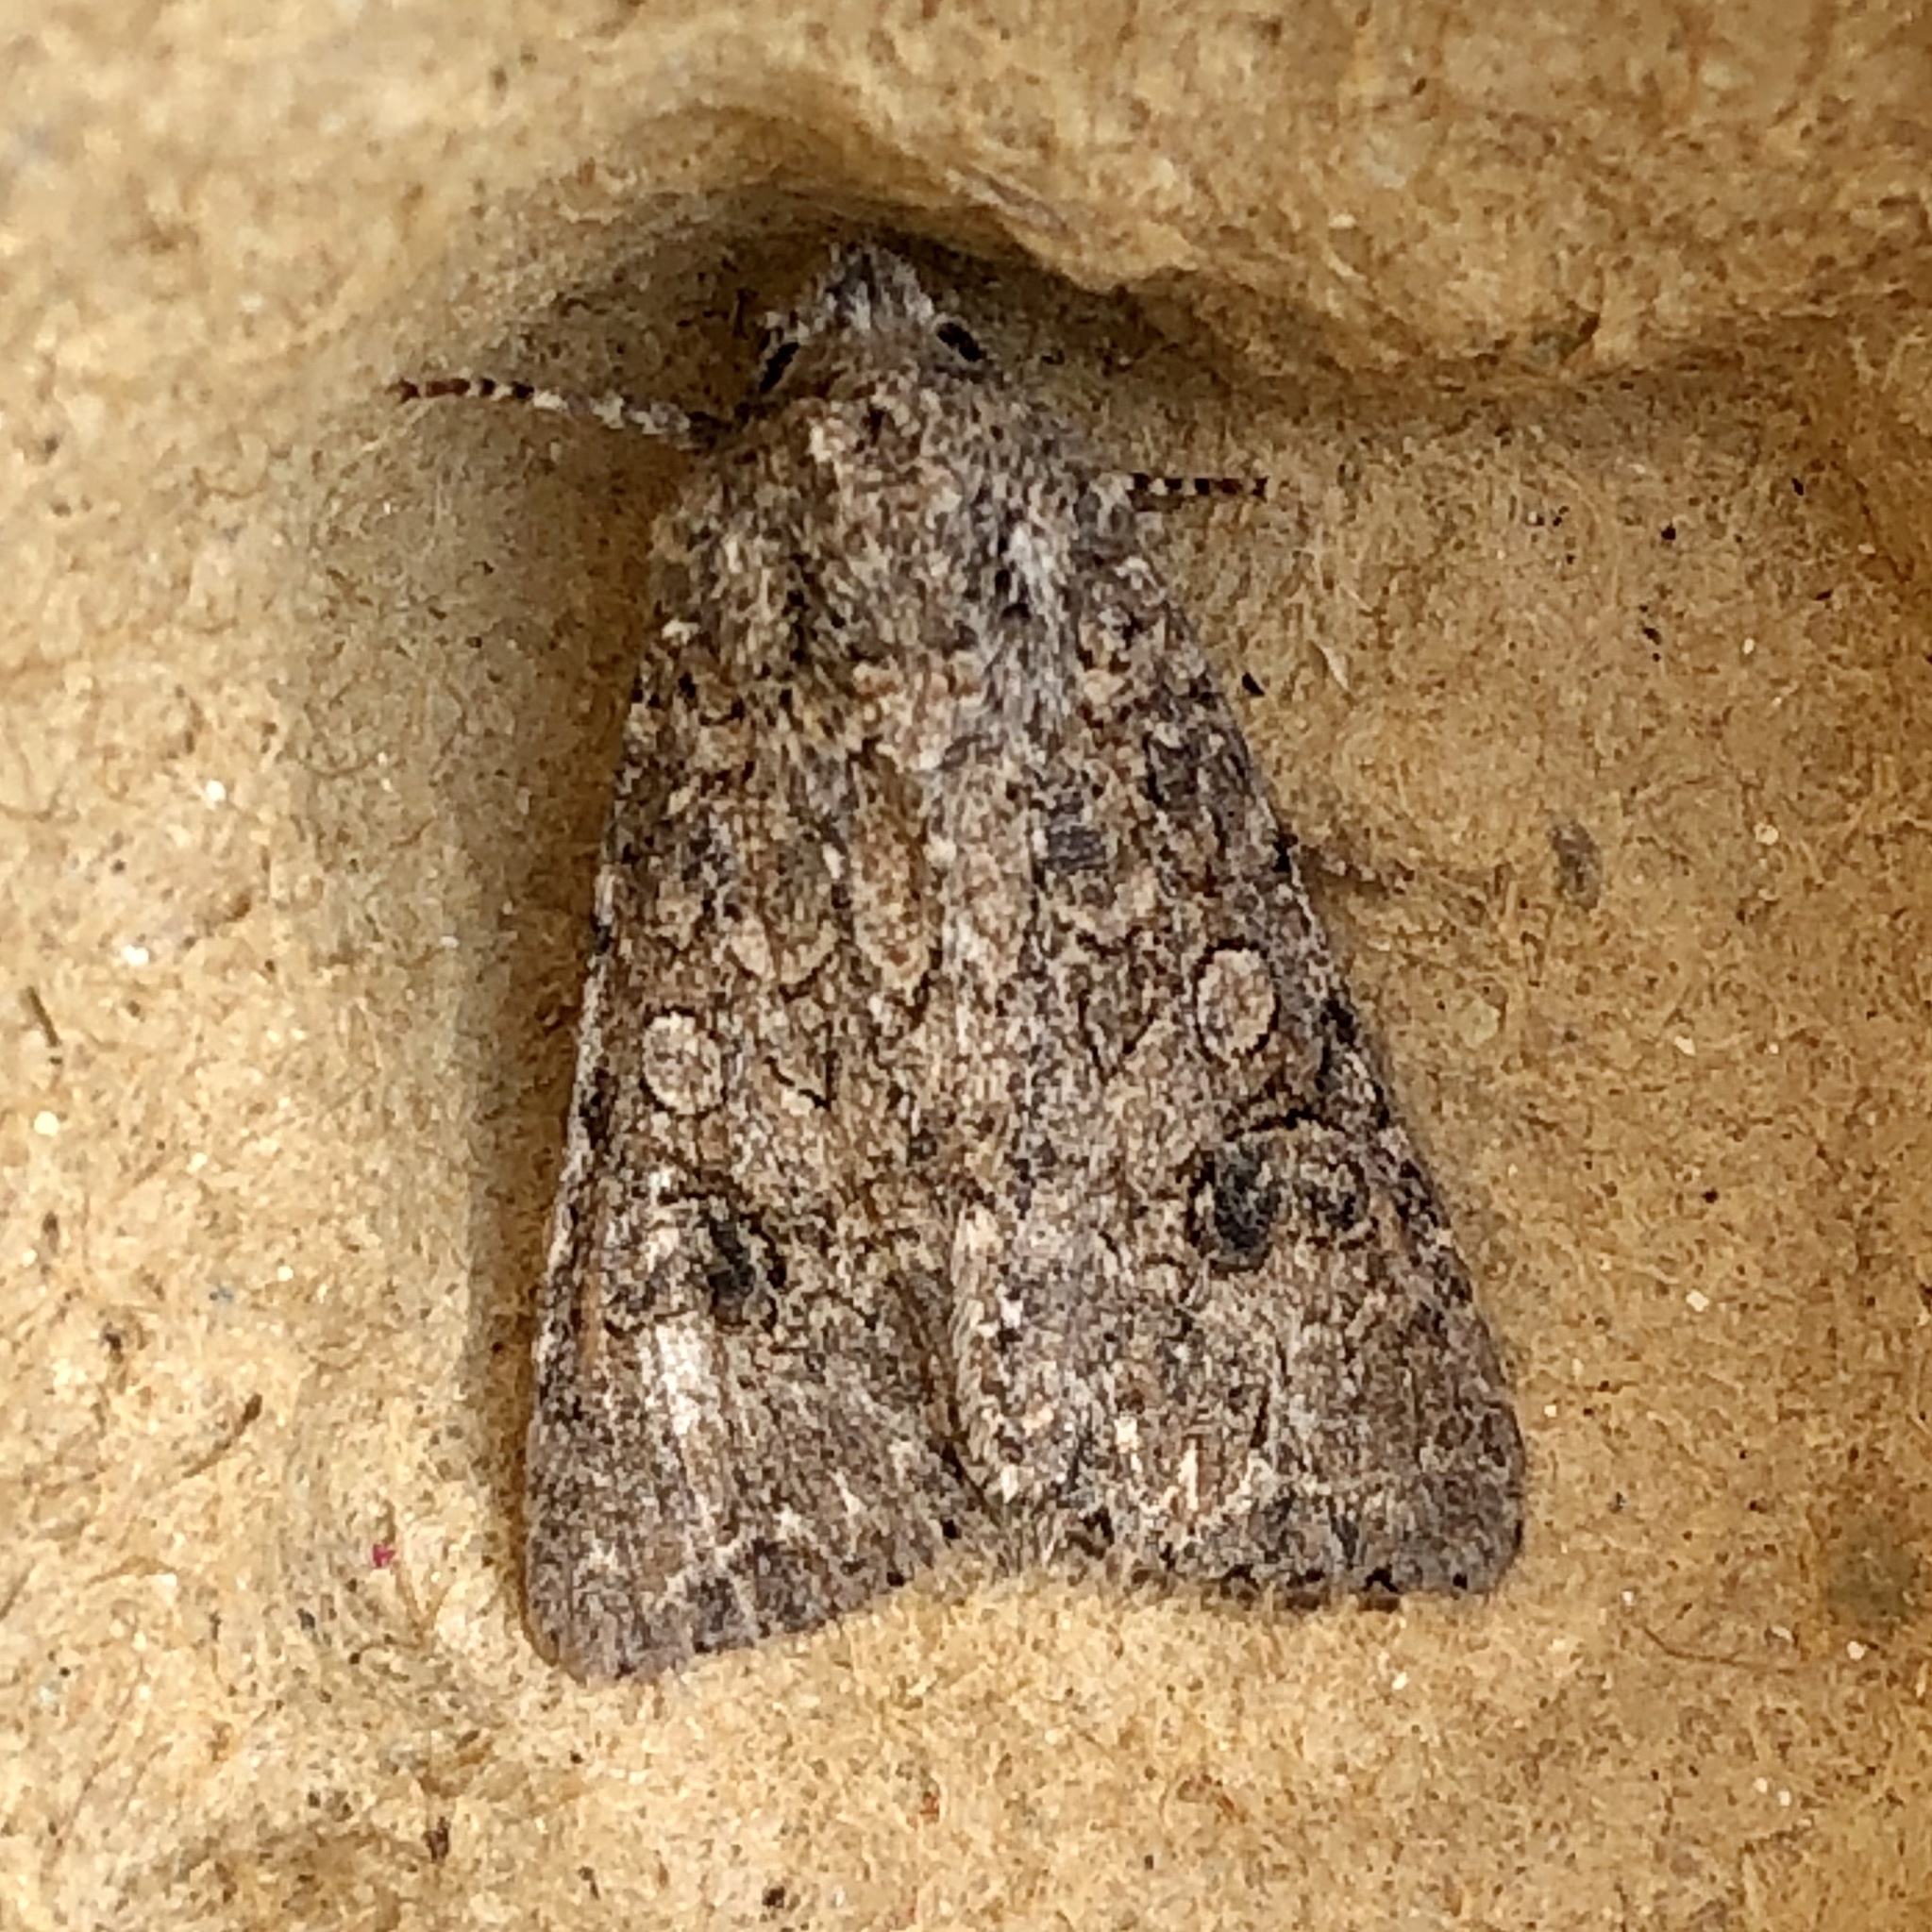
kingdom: Animalia
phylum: Arthropoda
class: Insecta
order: Lepidoptera
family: Noctuidae
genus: Anarta
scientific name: Anarta trifolii
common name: Clover cutworm moth
